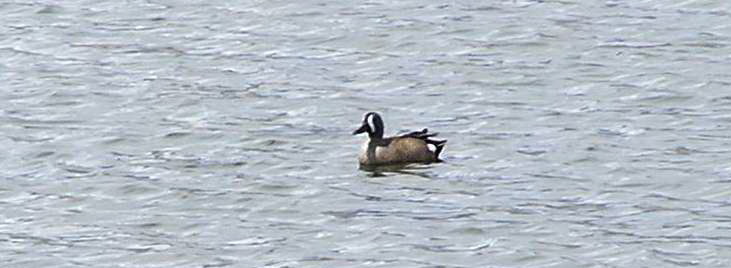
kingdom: Animalia
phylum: Chordata
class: Aves
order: Anseriformes
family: Anatidae
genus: Spatula
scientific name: Spatula discors
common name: Blue-winged teal
